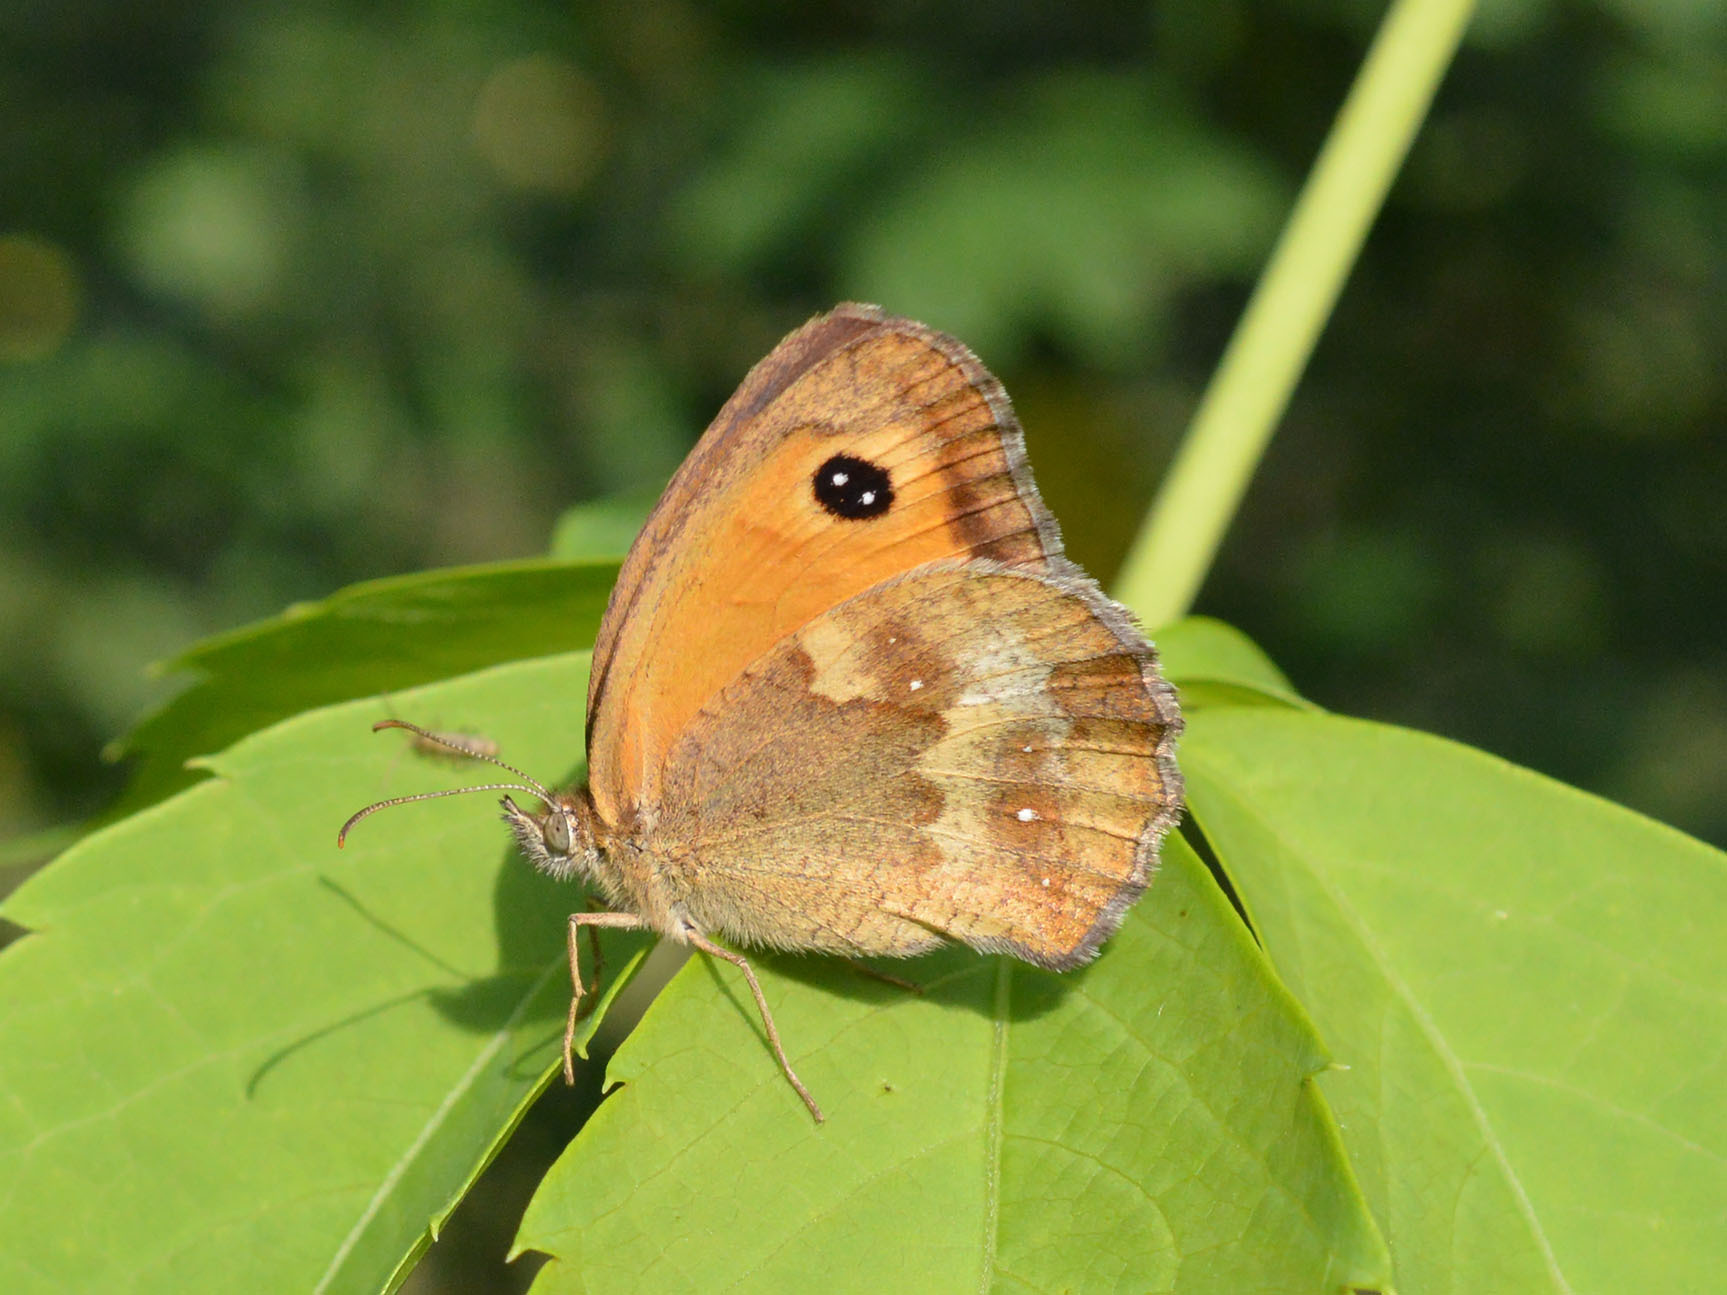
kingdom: Animalia
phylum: Arthropoda
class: Insecta
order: Lepidoptera
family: Nymphalidae
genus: Pyronia
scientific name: Pyronia tithonus
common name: Gatekeeper
